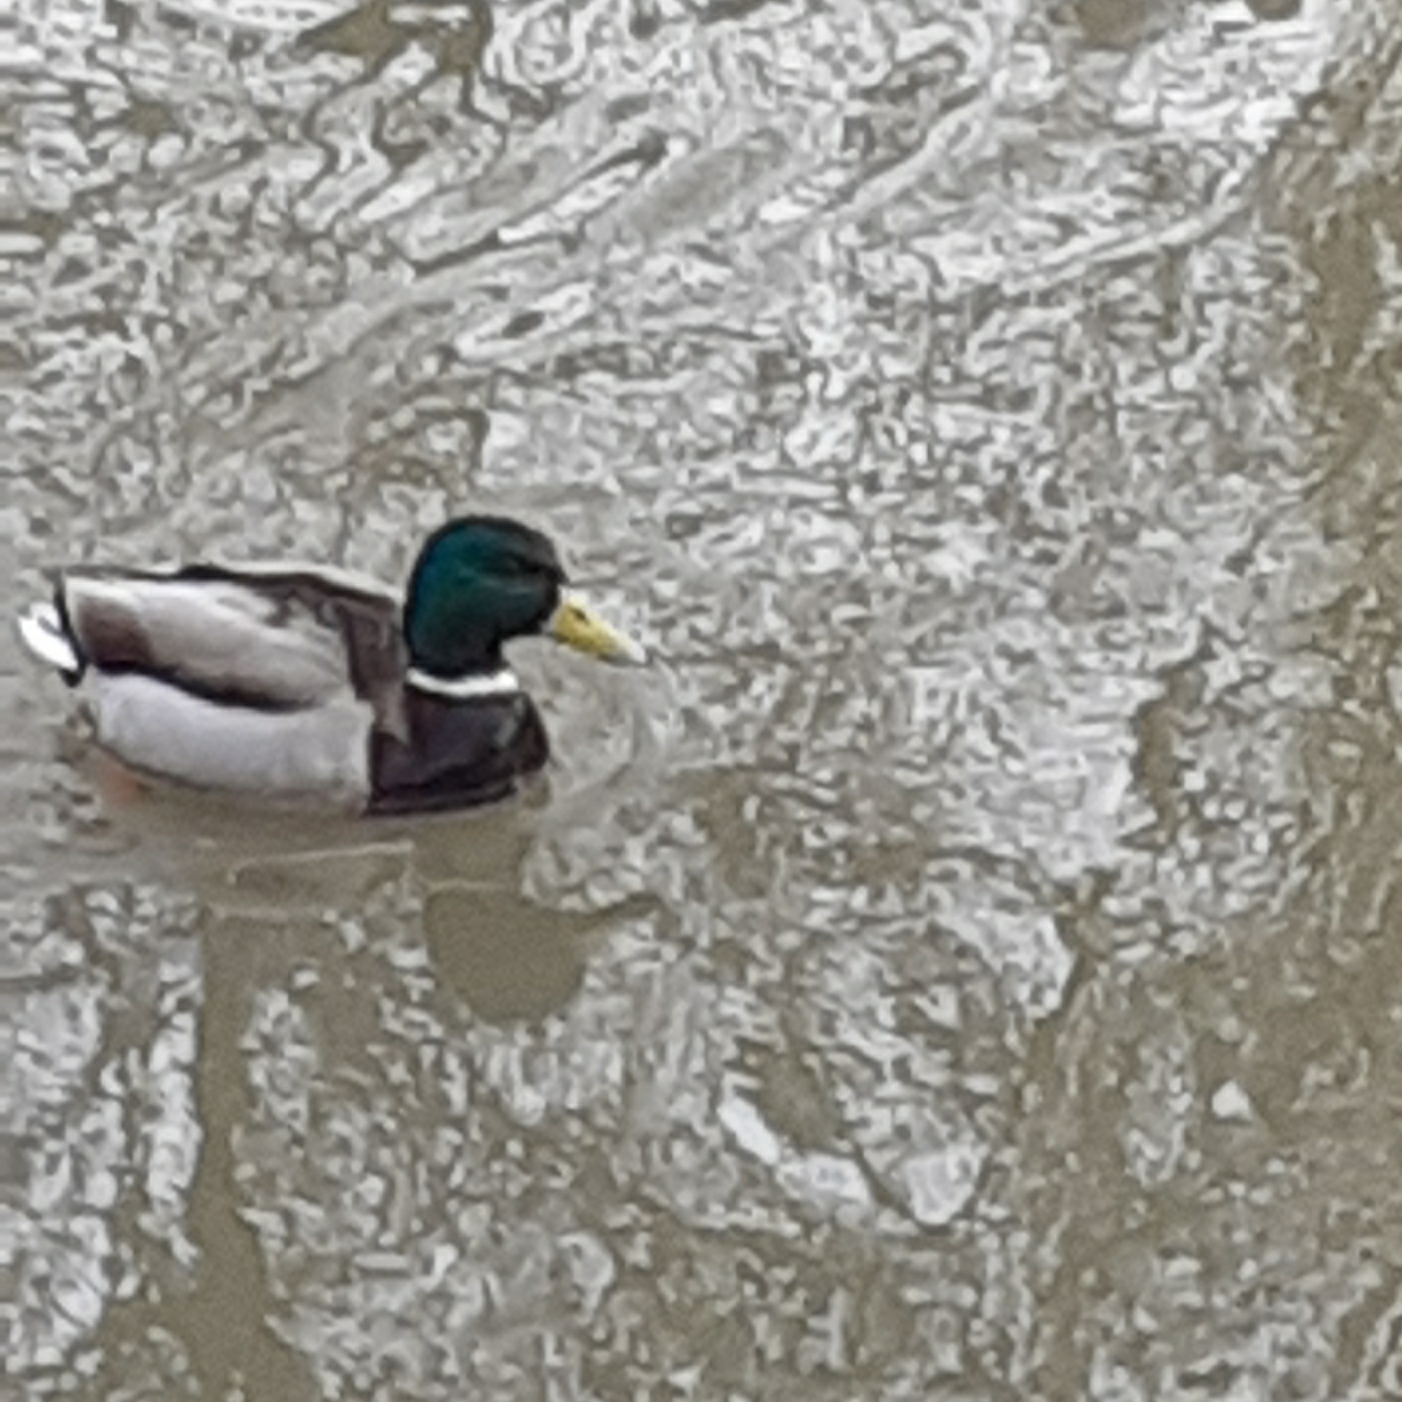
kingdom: Animalia
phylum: Chordata
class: Aves
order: Anseriformes
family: Anatidae
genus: Anas
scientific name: Anas platyrhynchos
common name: Mallard
